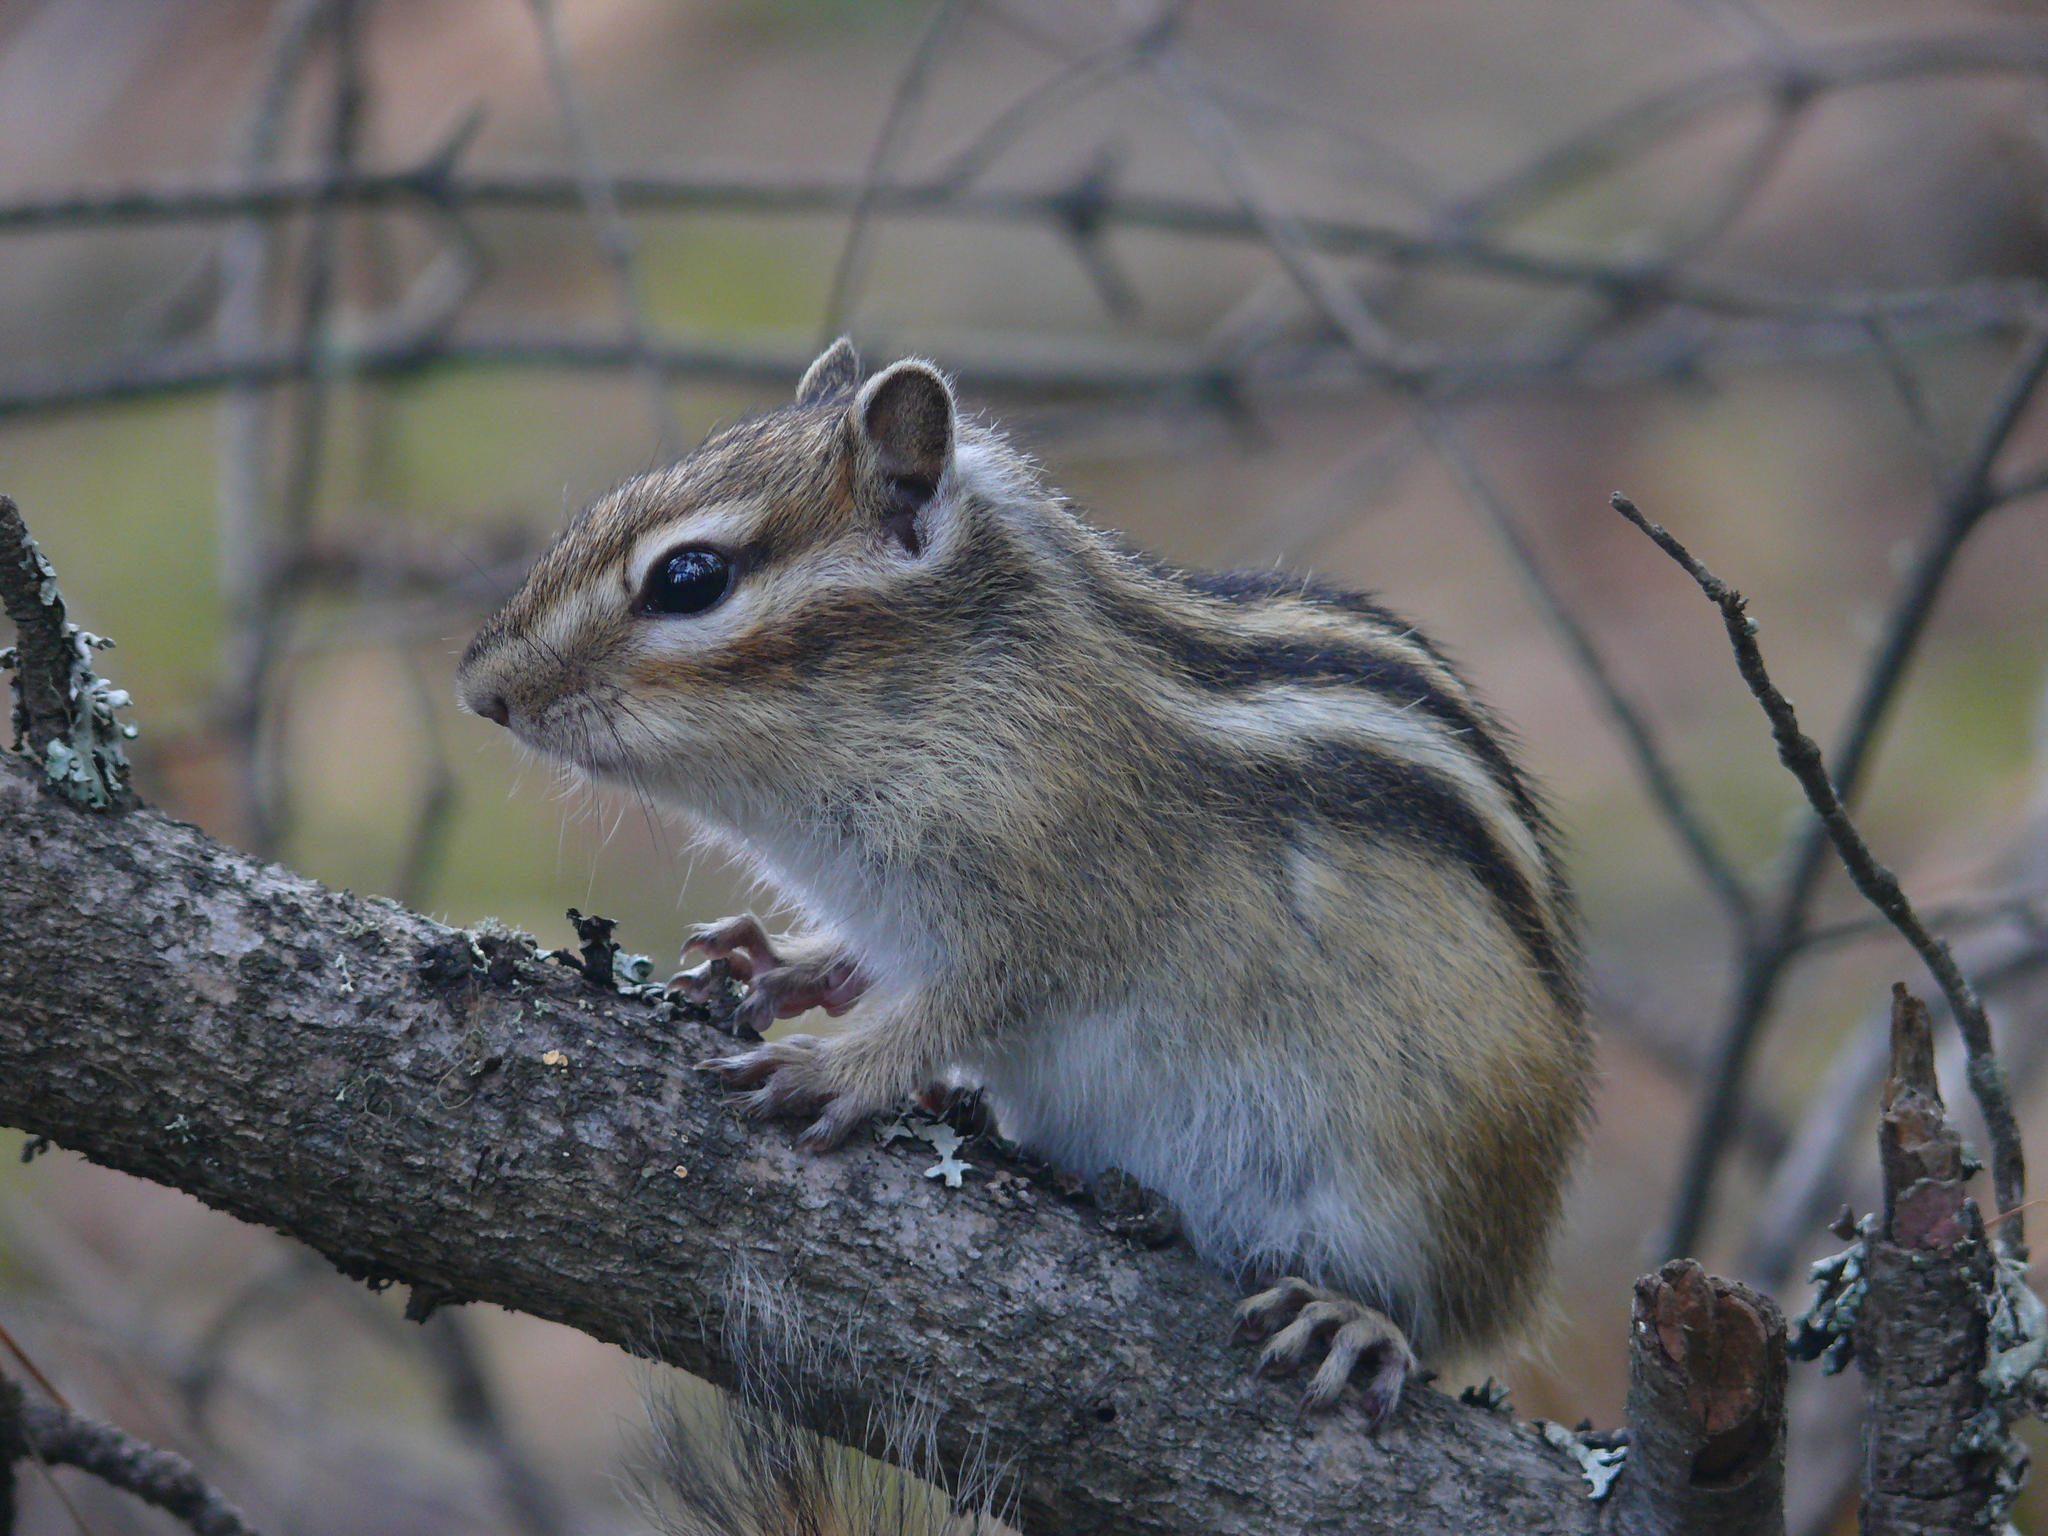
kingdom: Animalia
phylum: Chordata
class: Mammalia
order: Rodentia
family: Sciuridae
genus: Tamias
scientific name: Tamias sibiricus
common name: Siberian chipmunk
